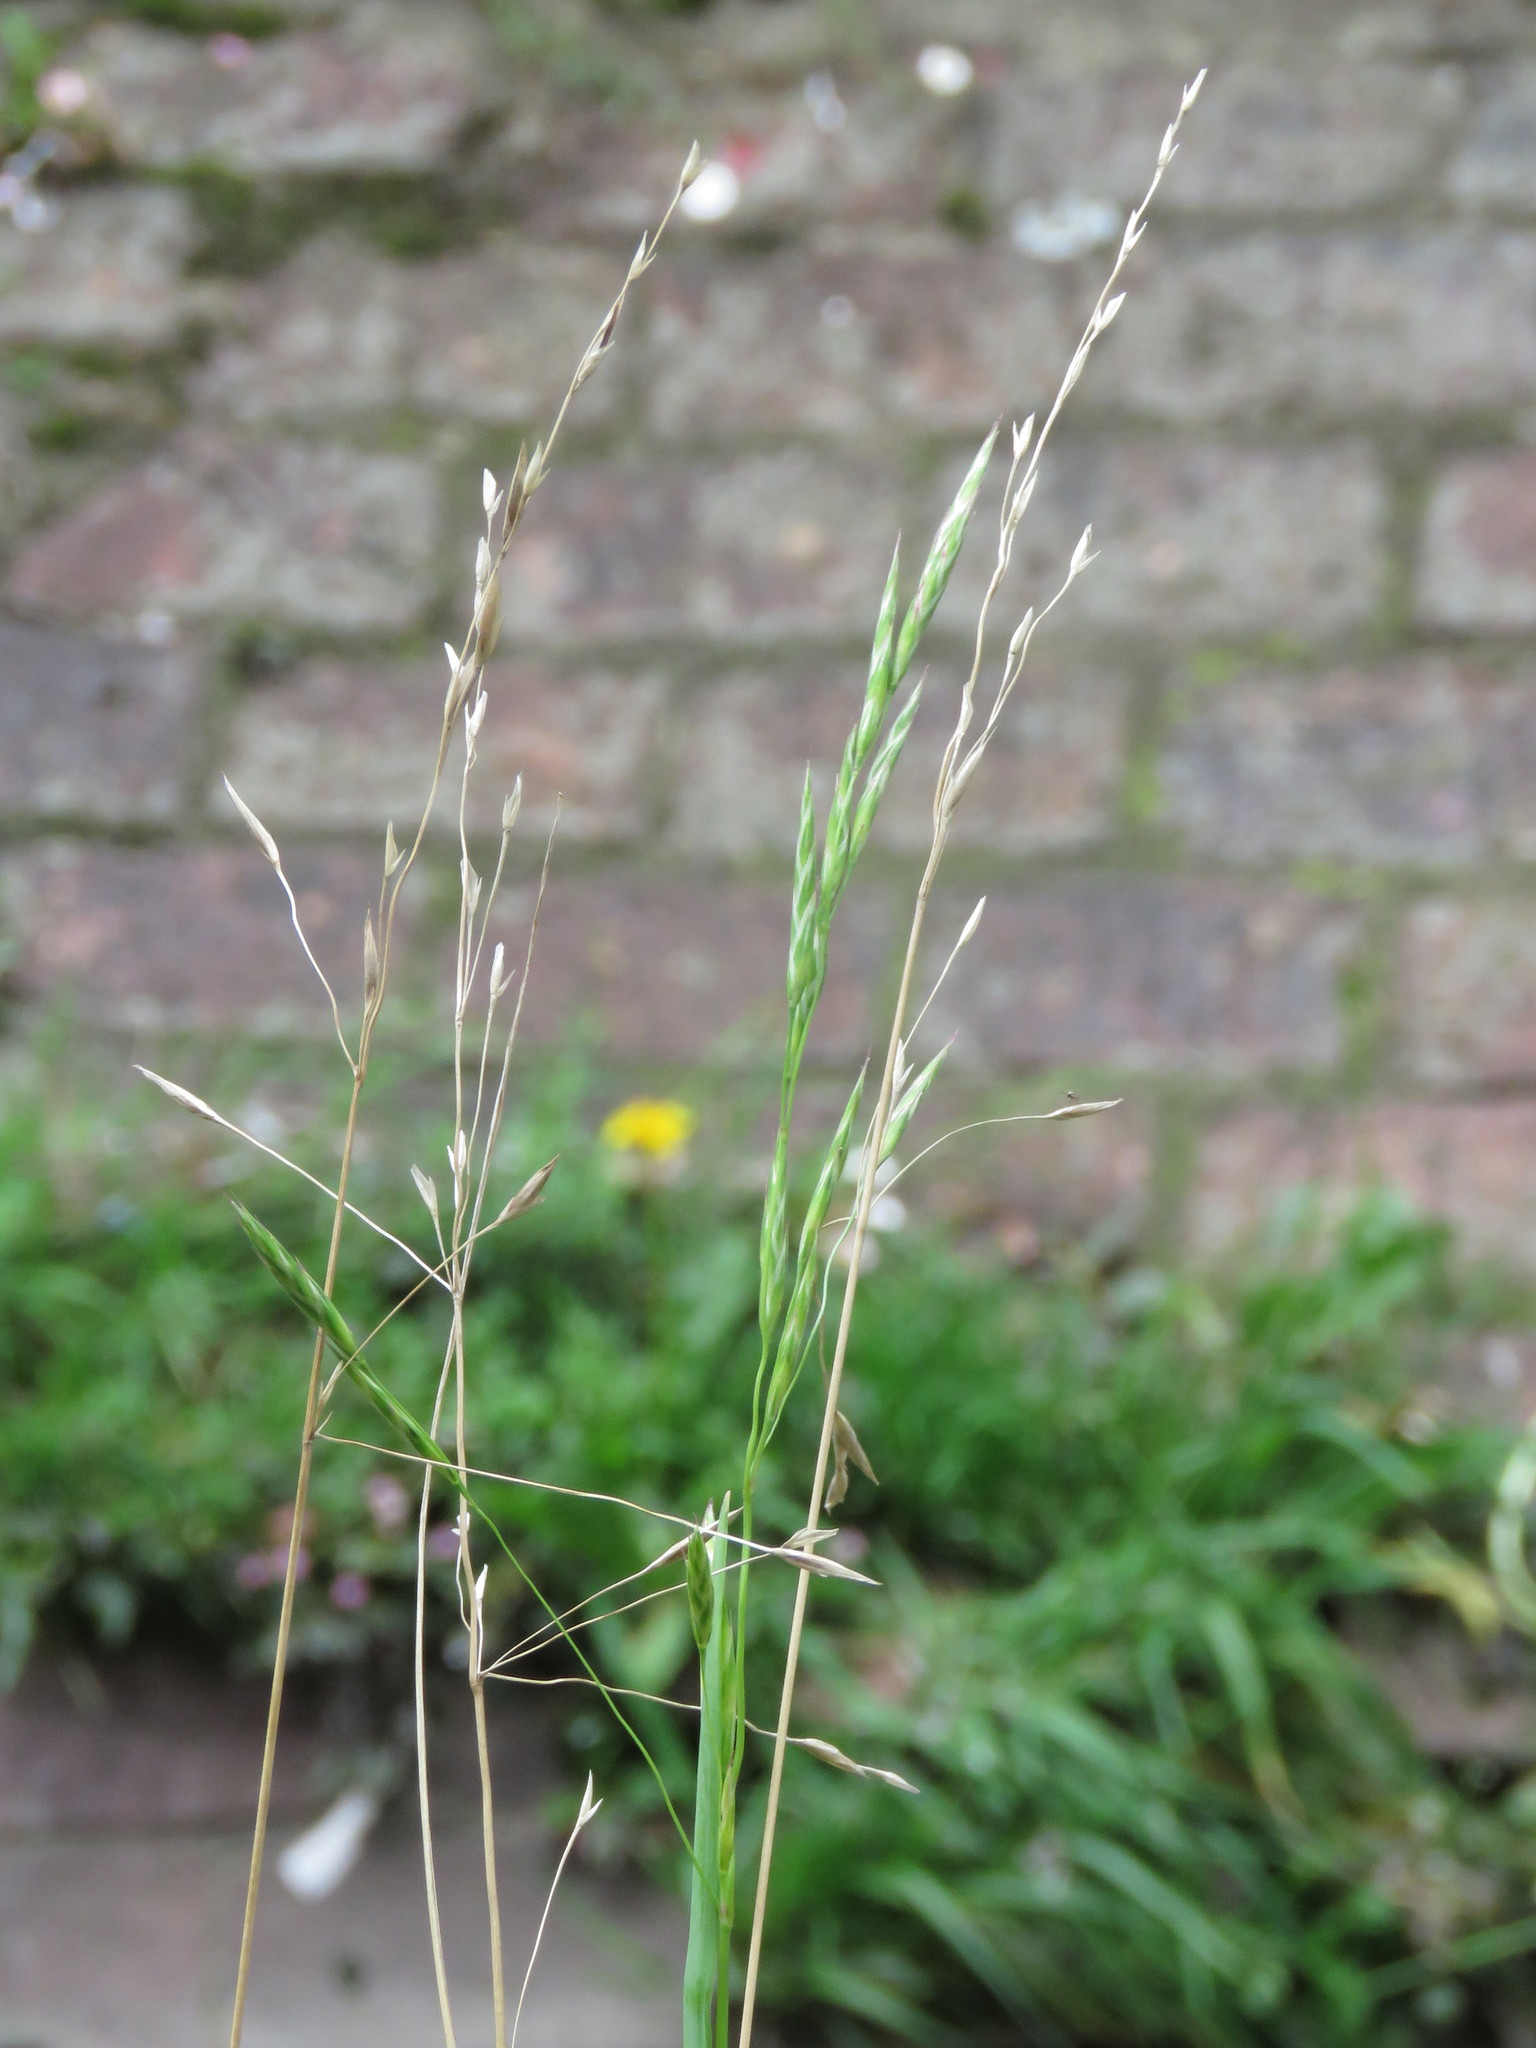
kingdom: Plantae
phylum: Tracheophyta
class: Liliopsida
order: Poales
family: Poaceae
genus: Bromus
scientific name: Bromus pitensis
